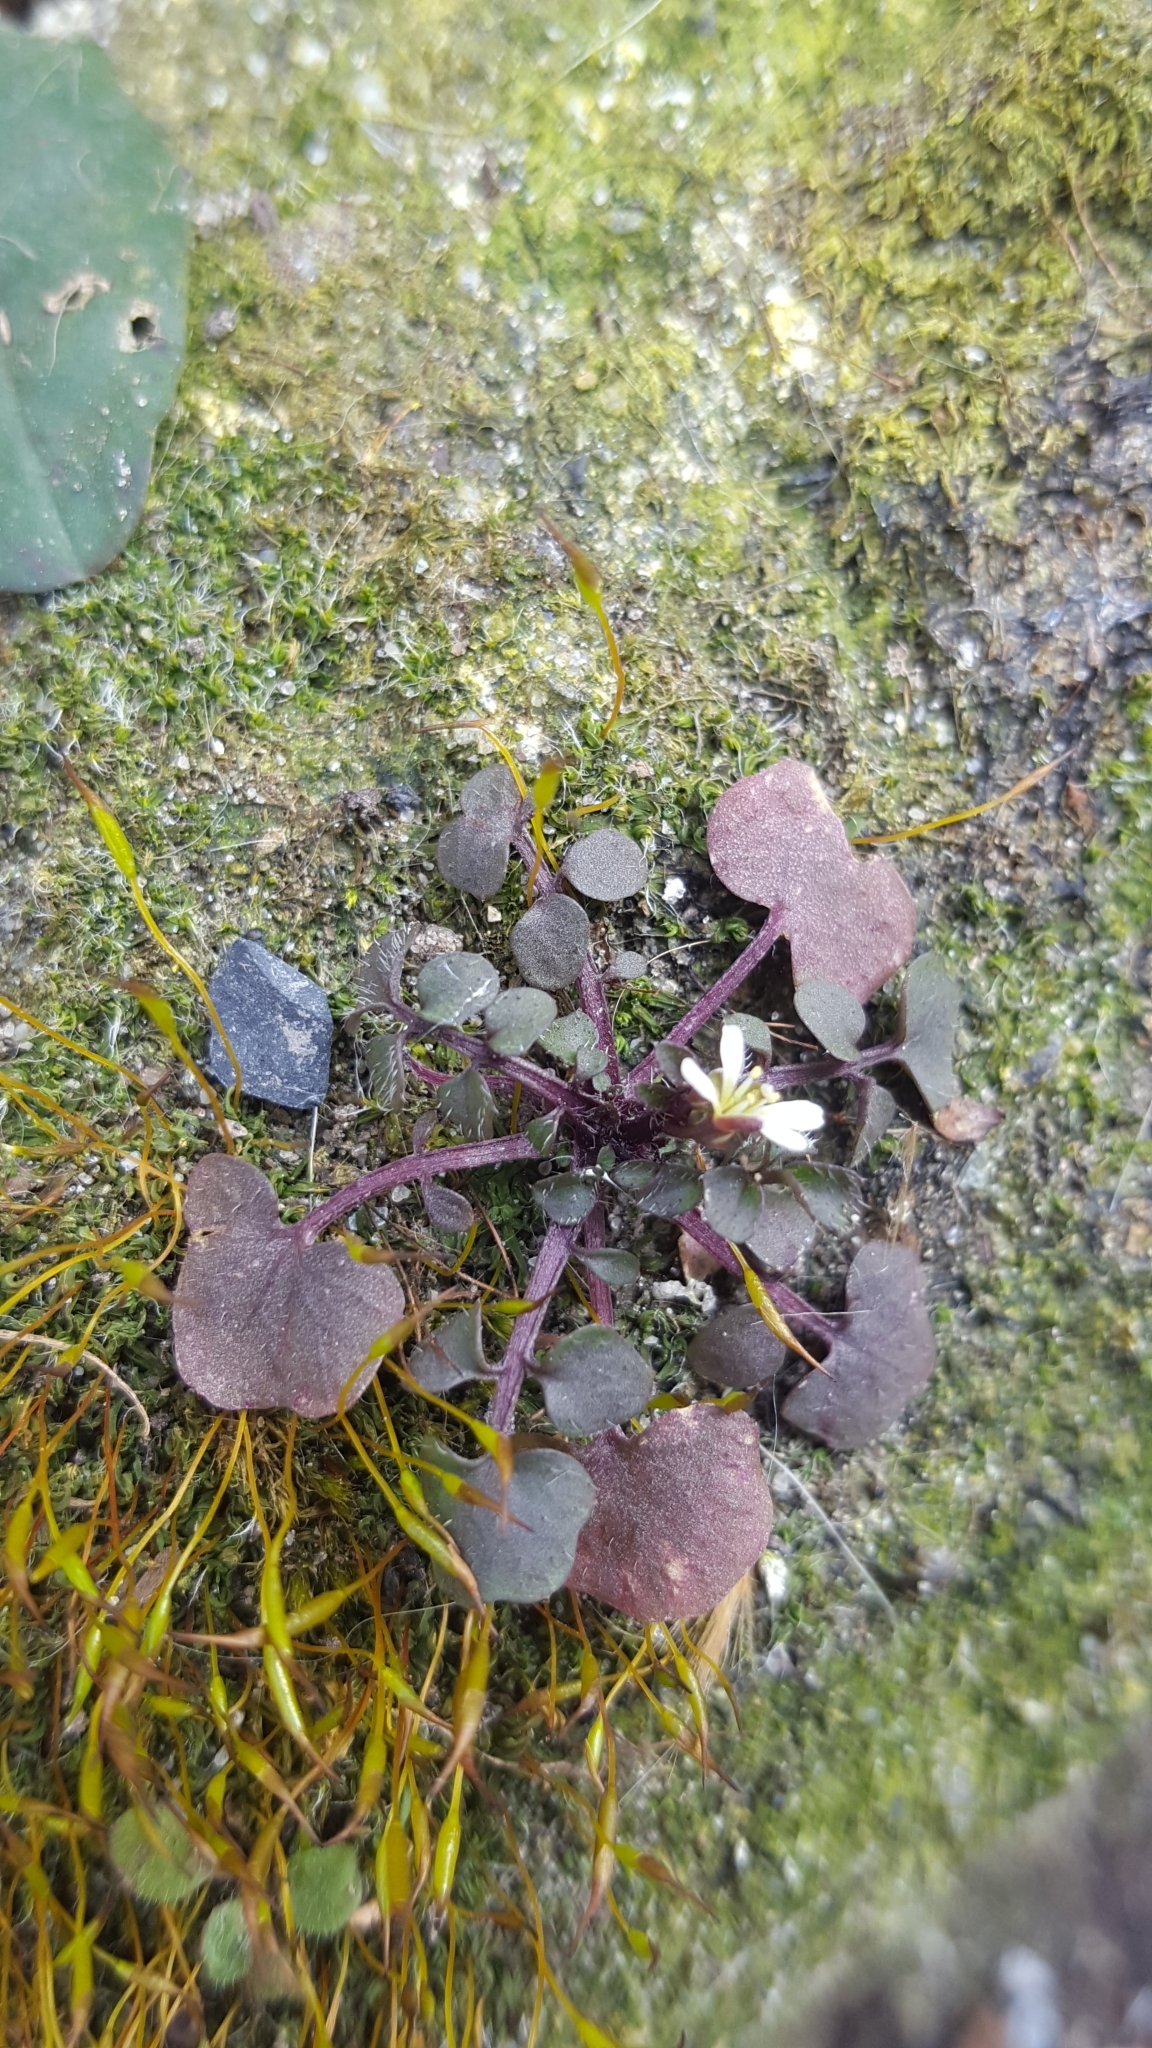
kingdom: Plantae
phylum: Tracheophyta
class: Magnoliopsida
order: Brassicales
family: Brassicaceae
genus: Cardamine
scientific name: Cardamine hirsuta
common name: Hairy bittercress
